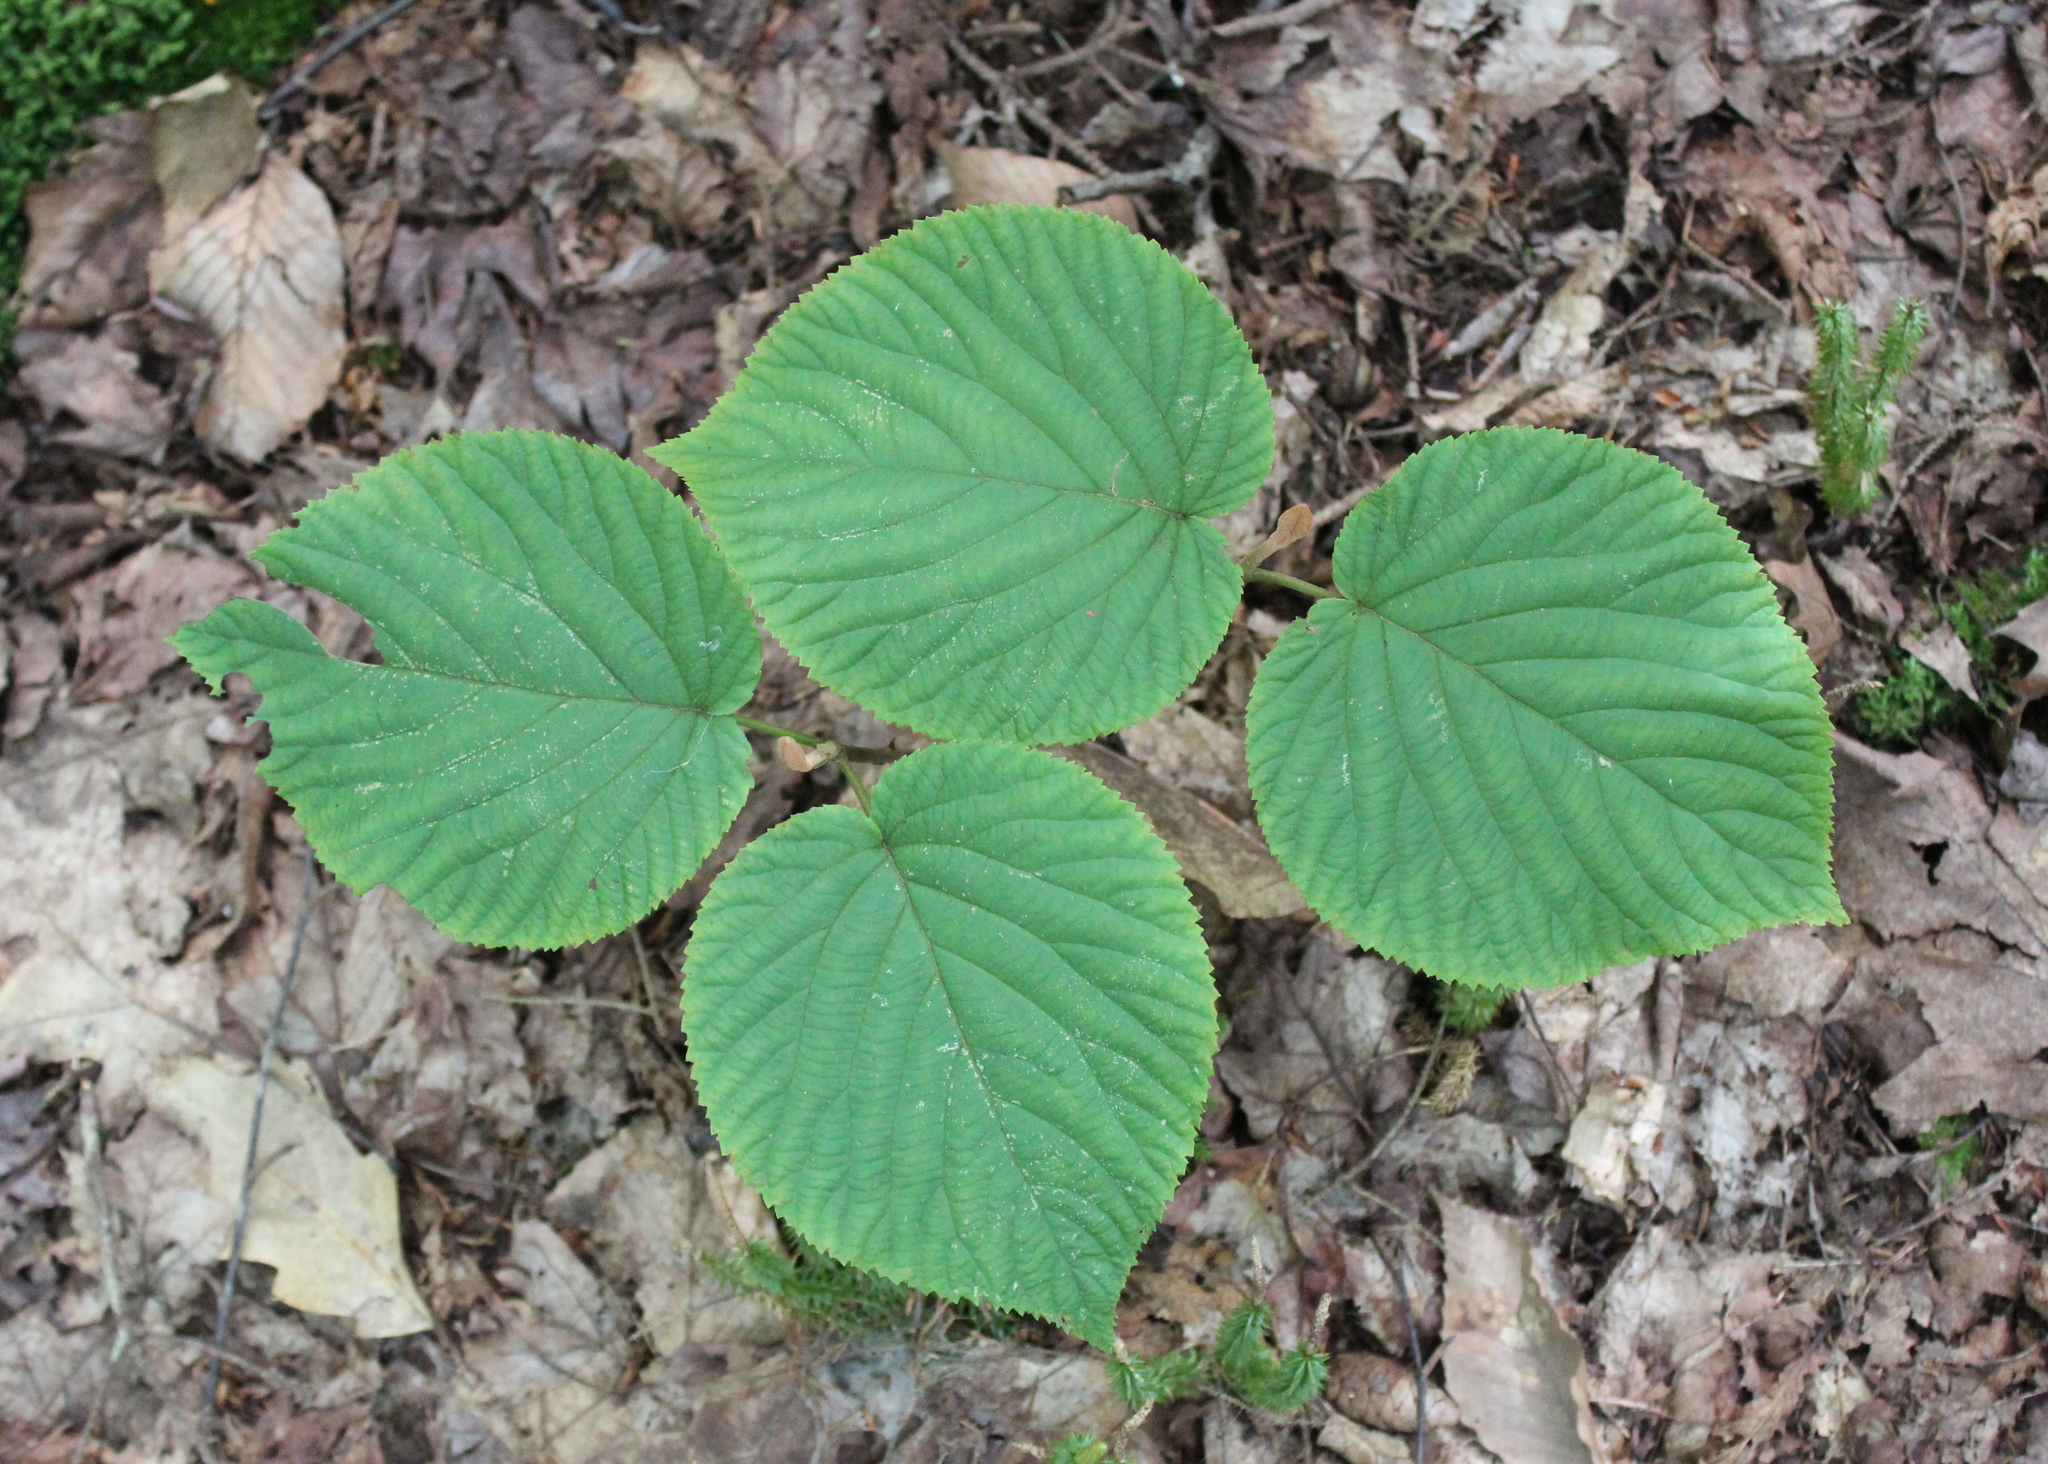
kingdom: Plantae
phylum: Tracheophyta
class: Magnoliopsida
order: Dipsacales
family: Viburnaceae
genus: Viburnum
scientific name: Viburnum lantanoides
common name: Hobblebush
